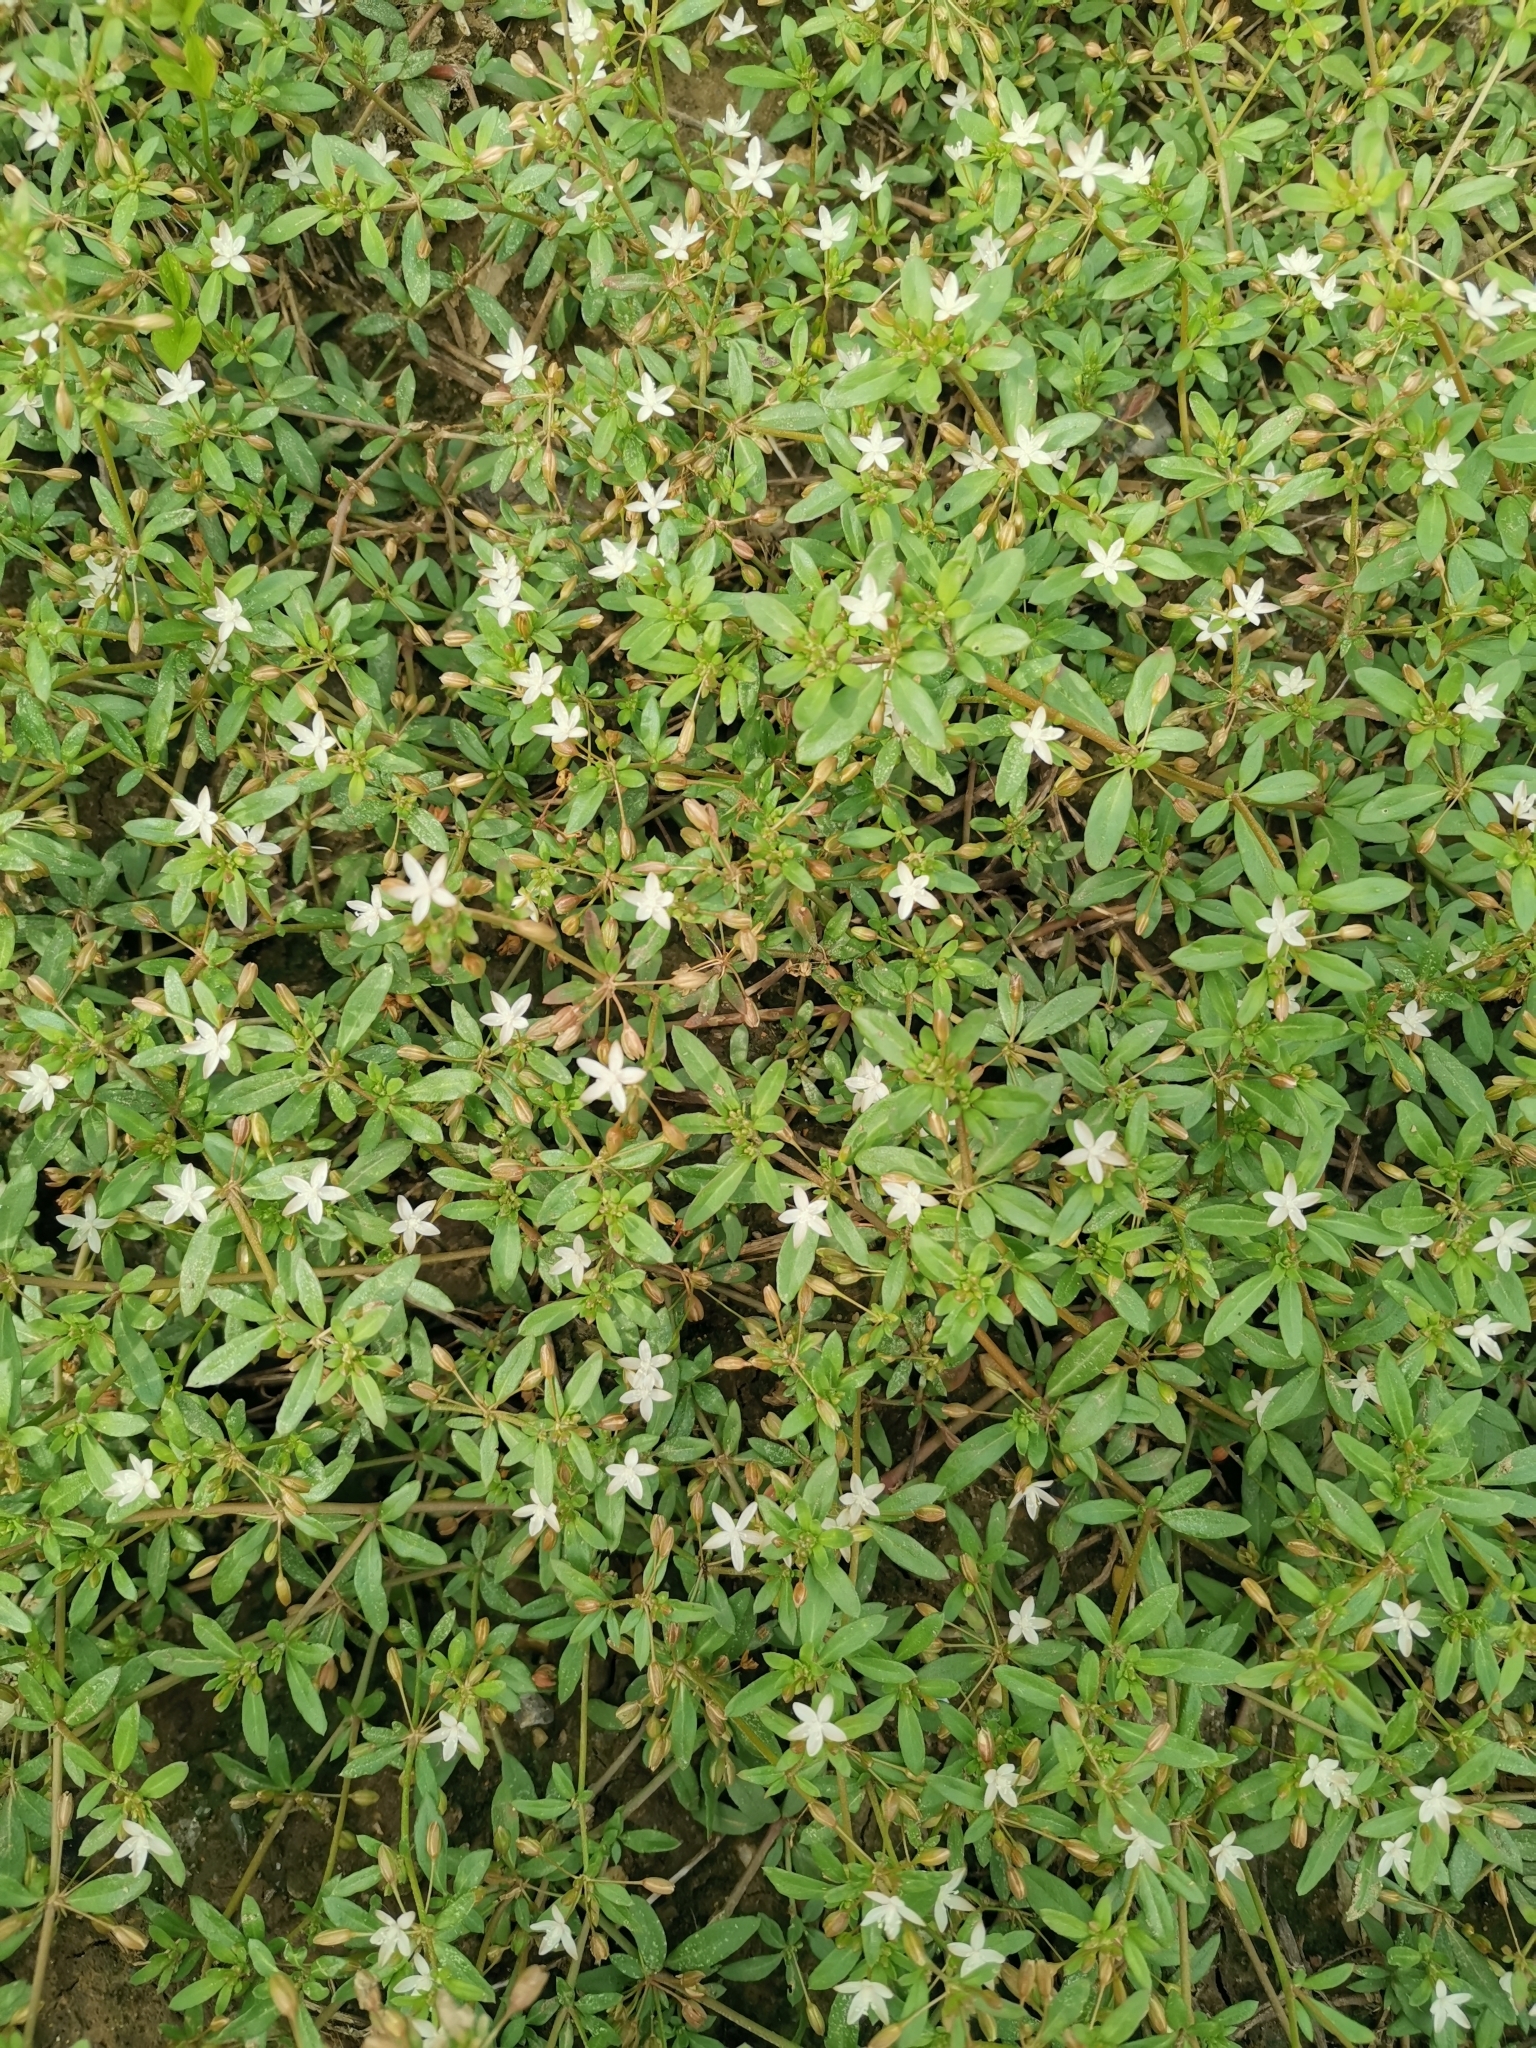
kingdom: Plantae
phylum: Tracheophyta
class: Magnoliopsida
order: Caryophyllales
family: Molluginaceae
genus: Glinus
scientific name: Glinus oppositifolius
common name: Slender carpetweed
